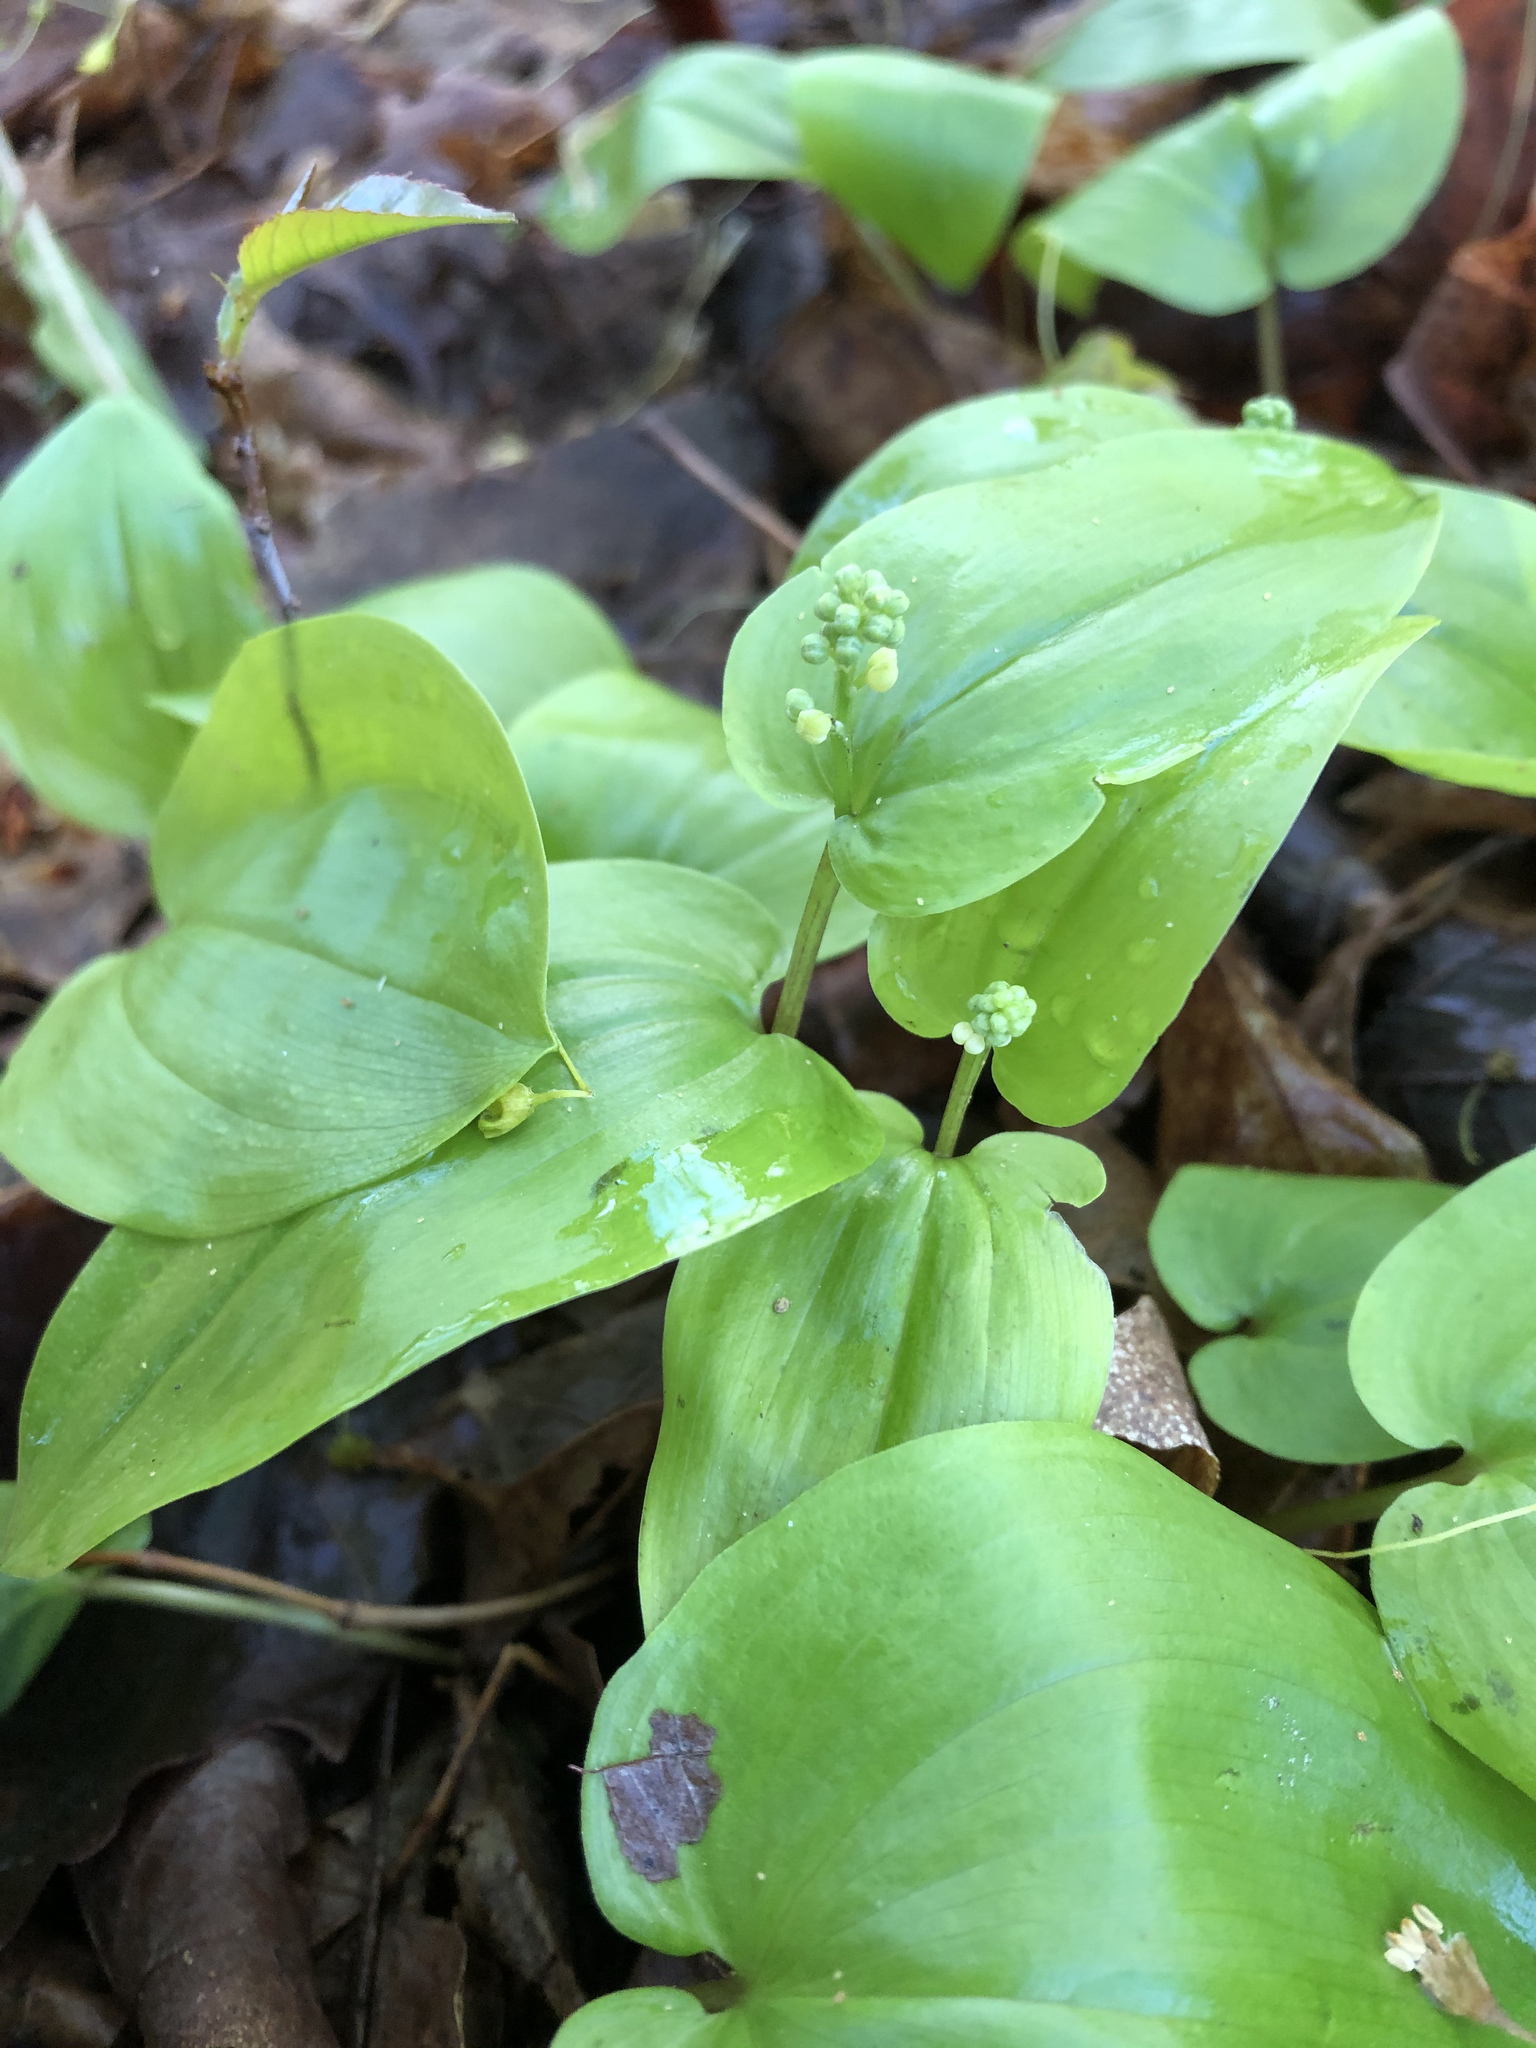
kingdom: Plantae
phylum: Tracheophyta
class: Liliopsida
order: Asparagales
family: Asparagaceae
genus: Maianthemum
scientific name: Maianthemum canadense
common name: False lily-of-the-valley
